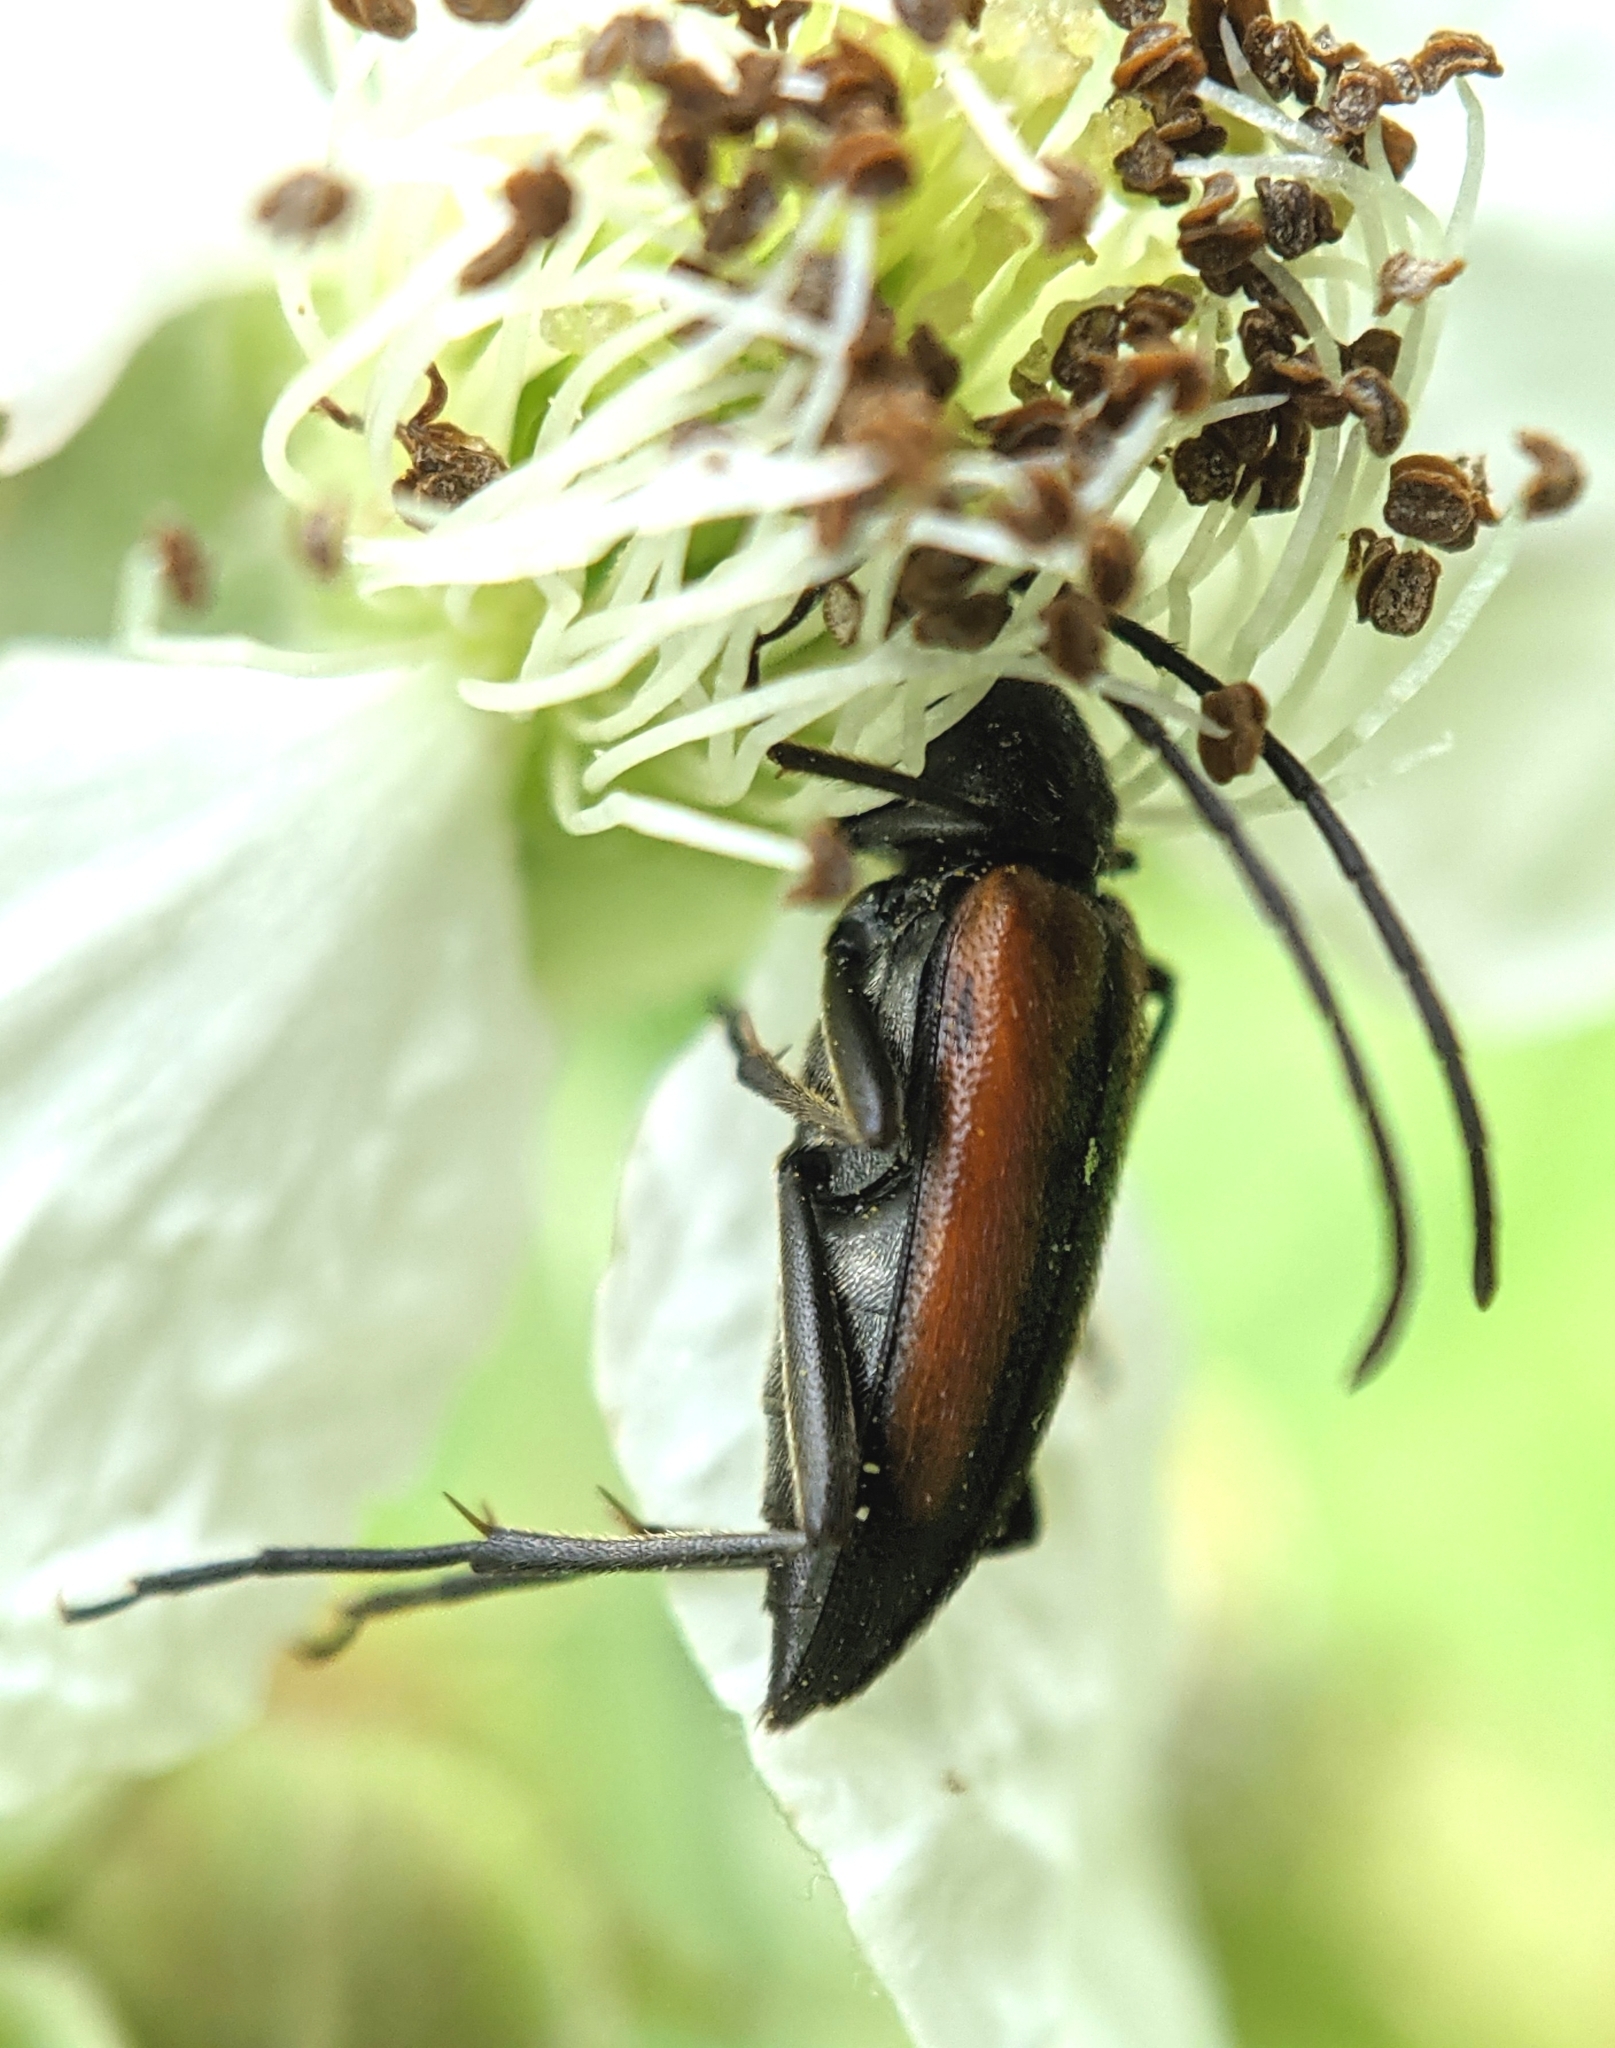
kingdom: Animalia
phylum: Arthropoda
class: Insecta
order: Coleoptera
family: Cerambycidae
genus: Stenurella
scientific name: Stenurella melanura
